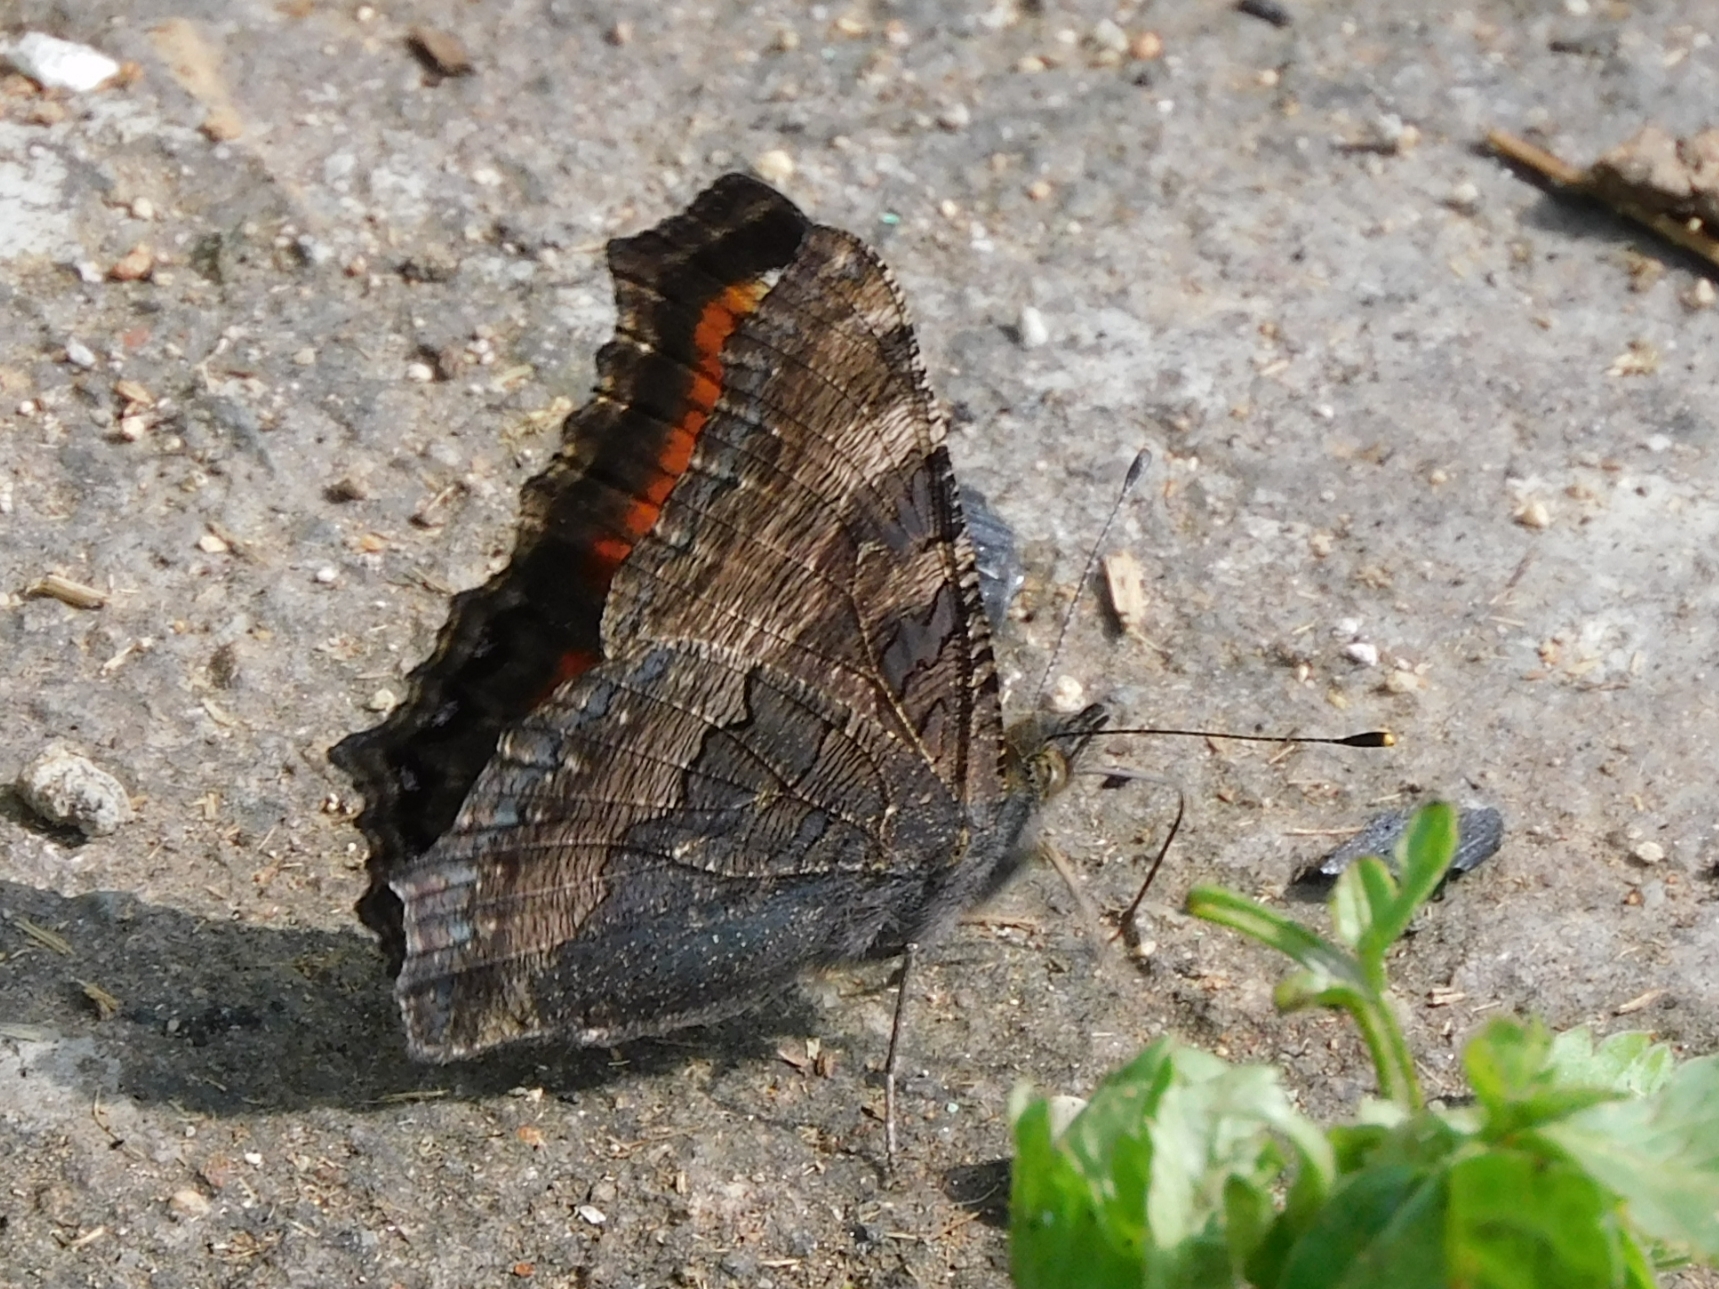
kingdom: Animalia
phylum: Arthropoda
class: Insecta
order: Lepidoptera
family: Nymphalidae
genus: Aglais
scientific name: Aglais caschmirensis
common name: Indian tortoiseshell
